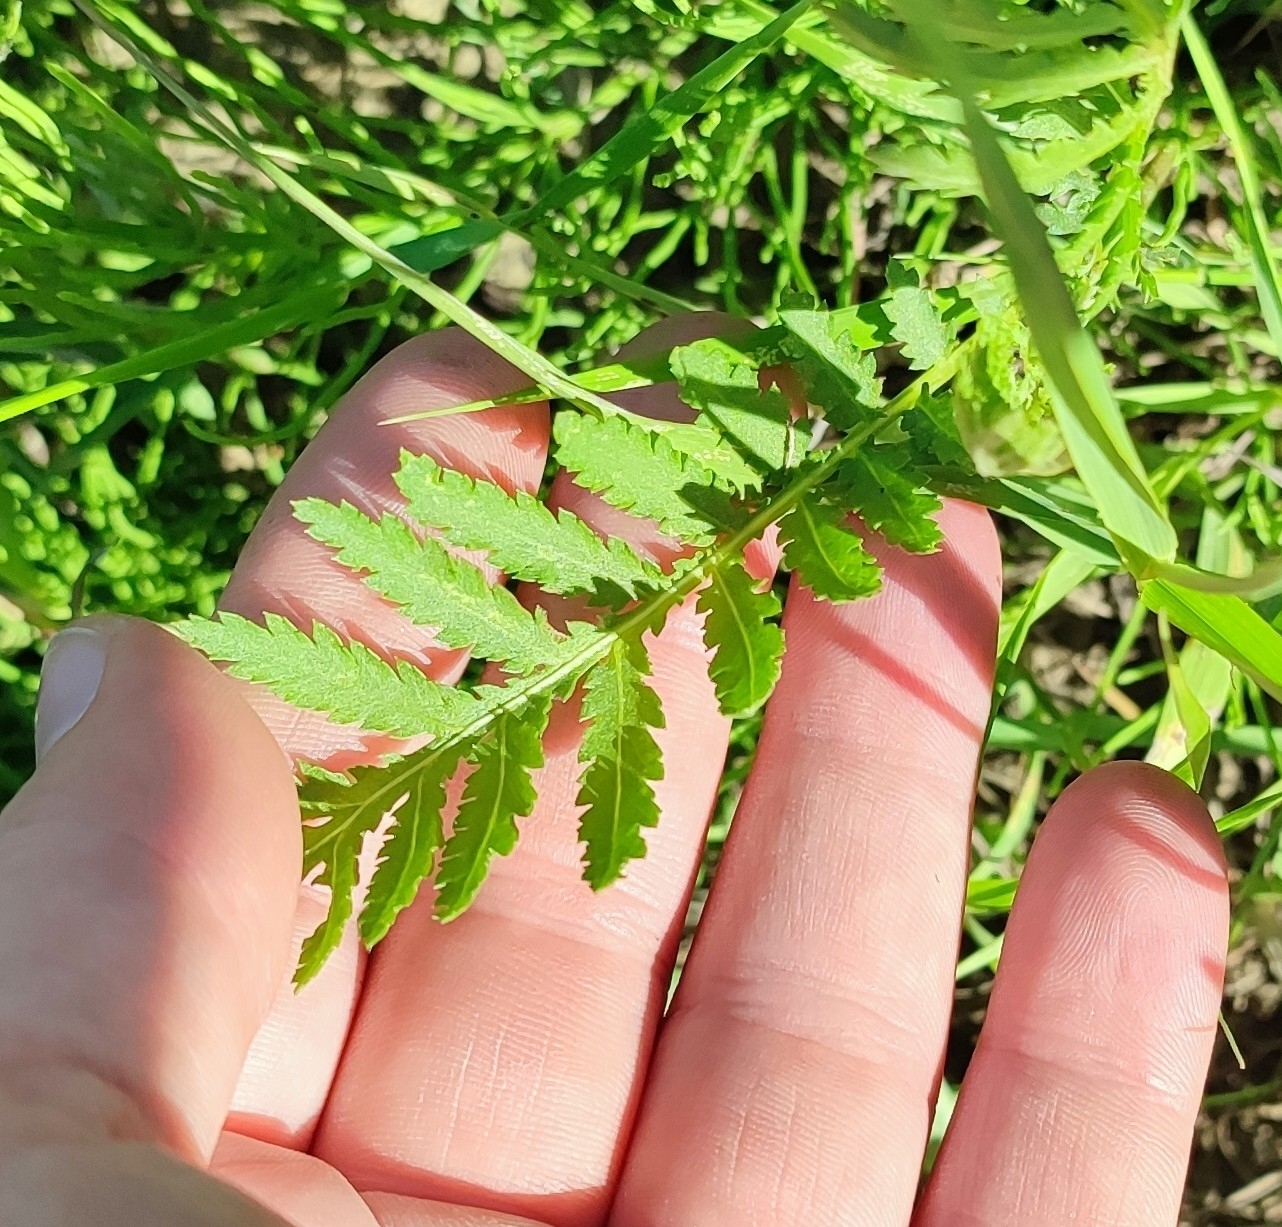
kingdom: Plantae
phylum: Tracheophyta
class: Magnoliopsida
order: Asterales
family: Asteraceae
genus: Tanacetum
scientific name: Tanacetum vulgare
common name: Common tansy
